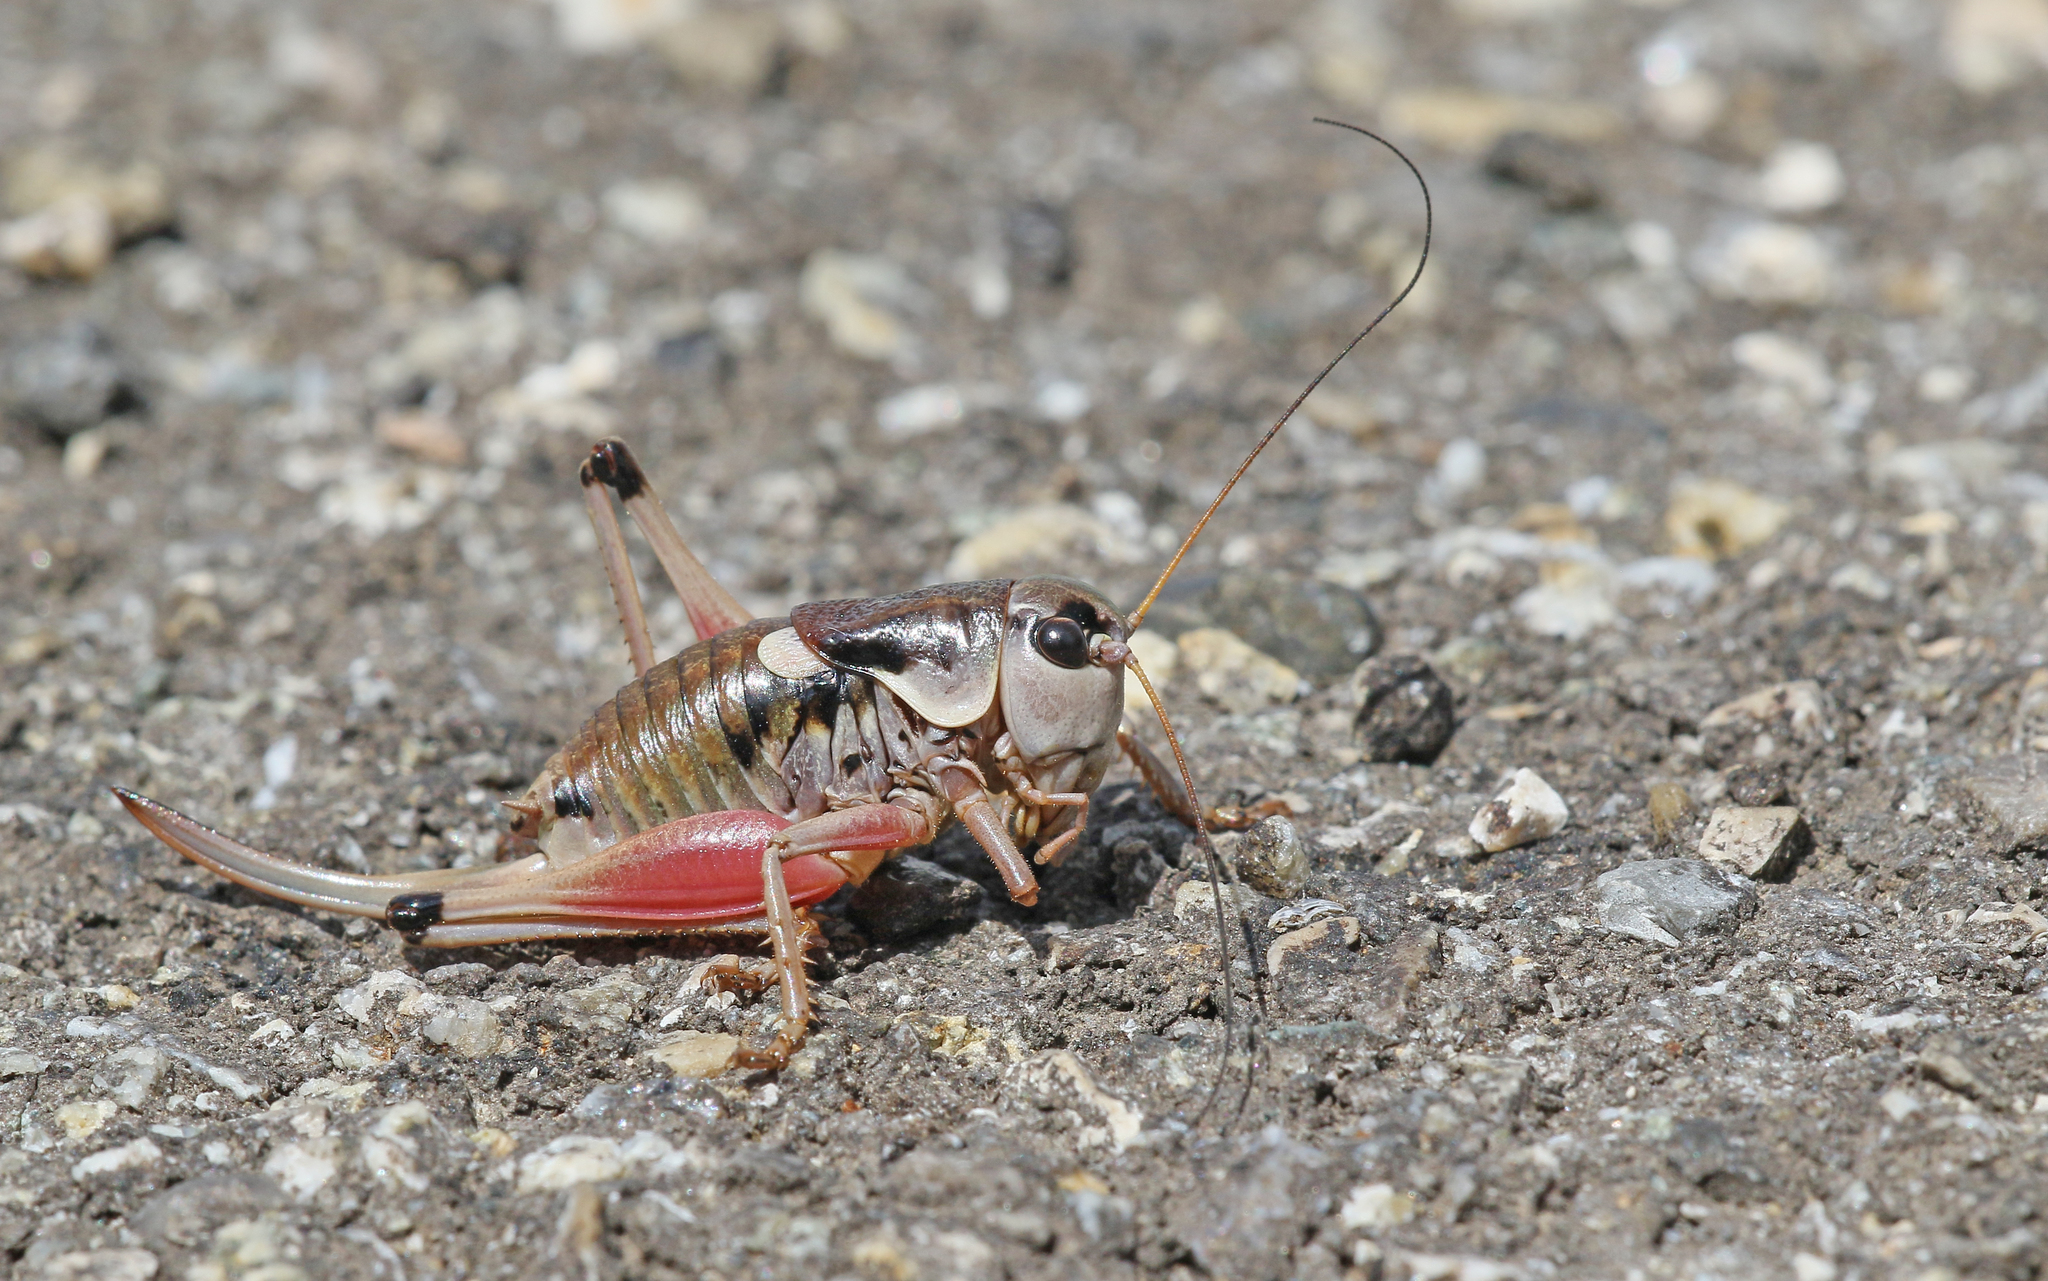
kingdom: Animalia
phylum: Arthropoda
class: Insecta
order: Orthoptera
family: Tettigoniidae
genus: Anonconotus
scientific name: Anonconotus ghilianii
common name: Ghiliani's alpine bush-cricket
